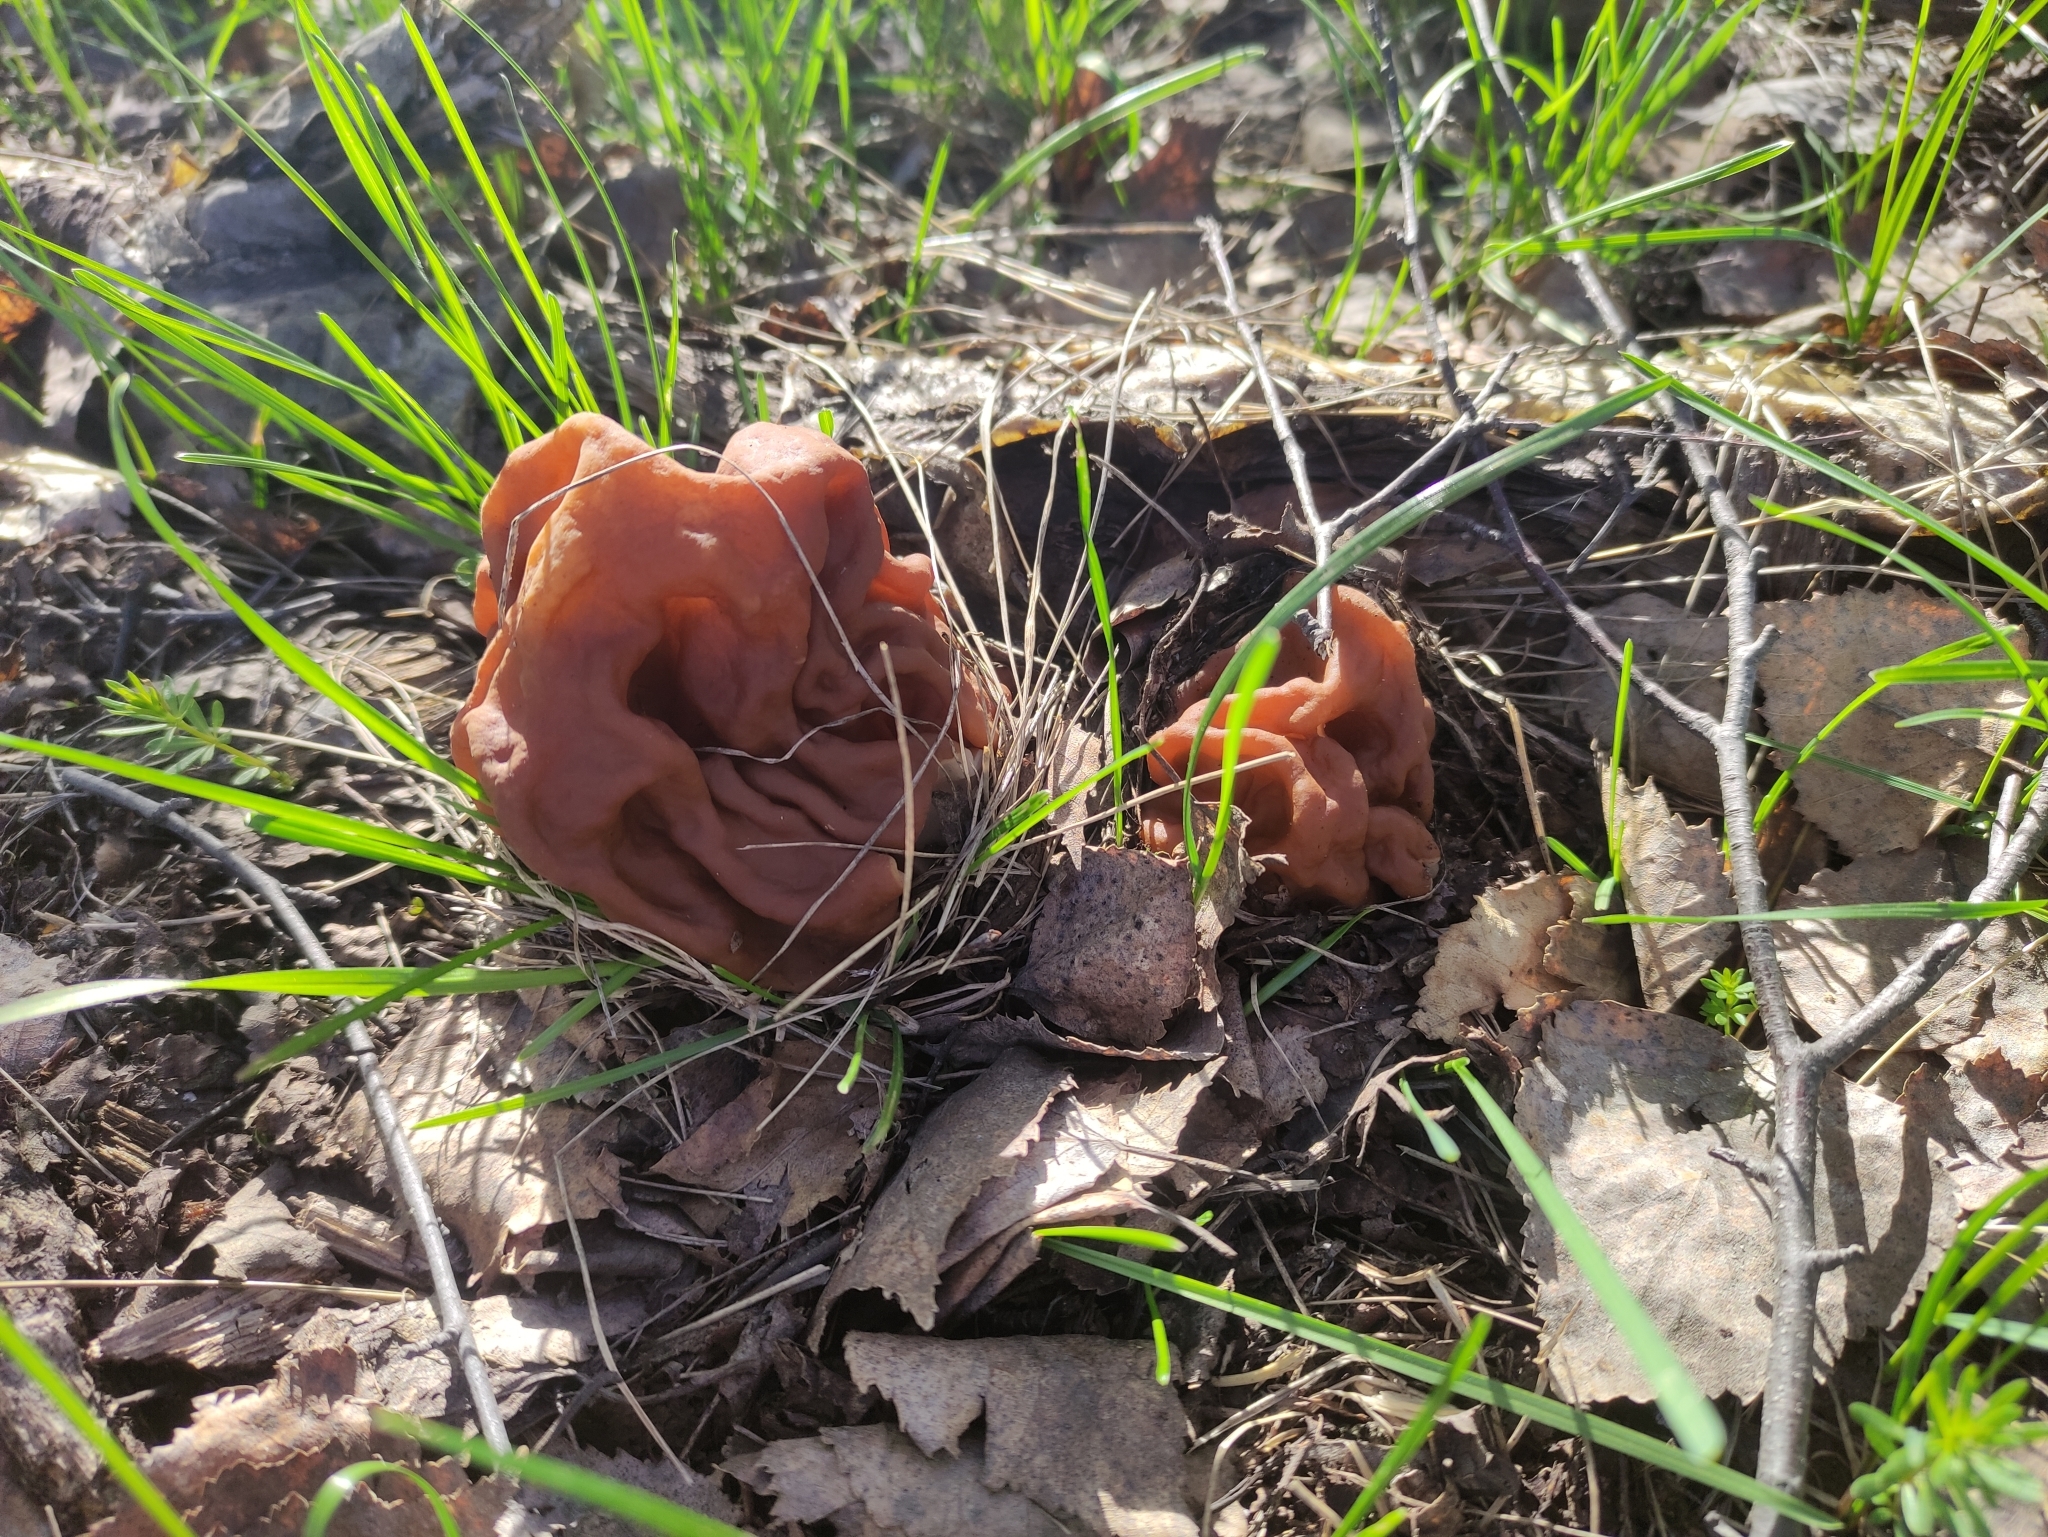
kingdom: Fungi
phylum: Ascomycota
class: Pezizomycetes
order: Pezizales
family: Discinaceae
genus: Gyromitra
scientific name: Gyromitra gigas
